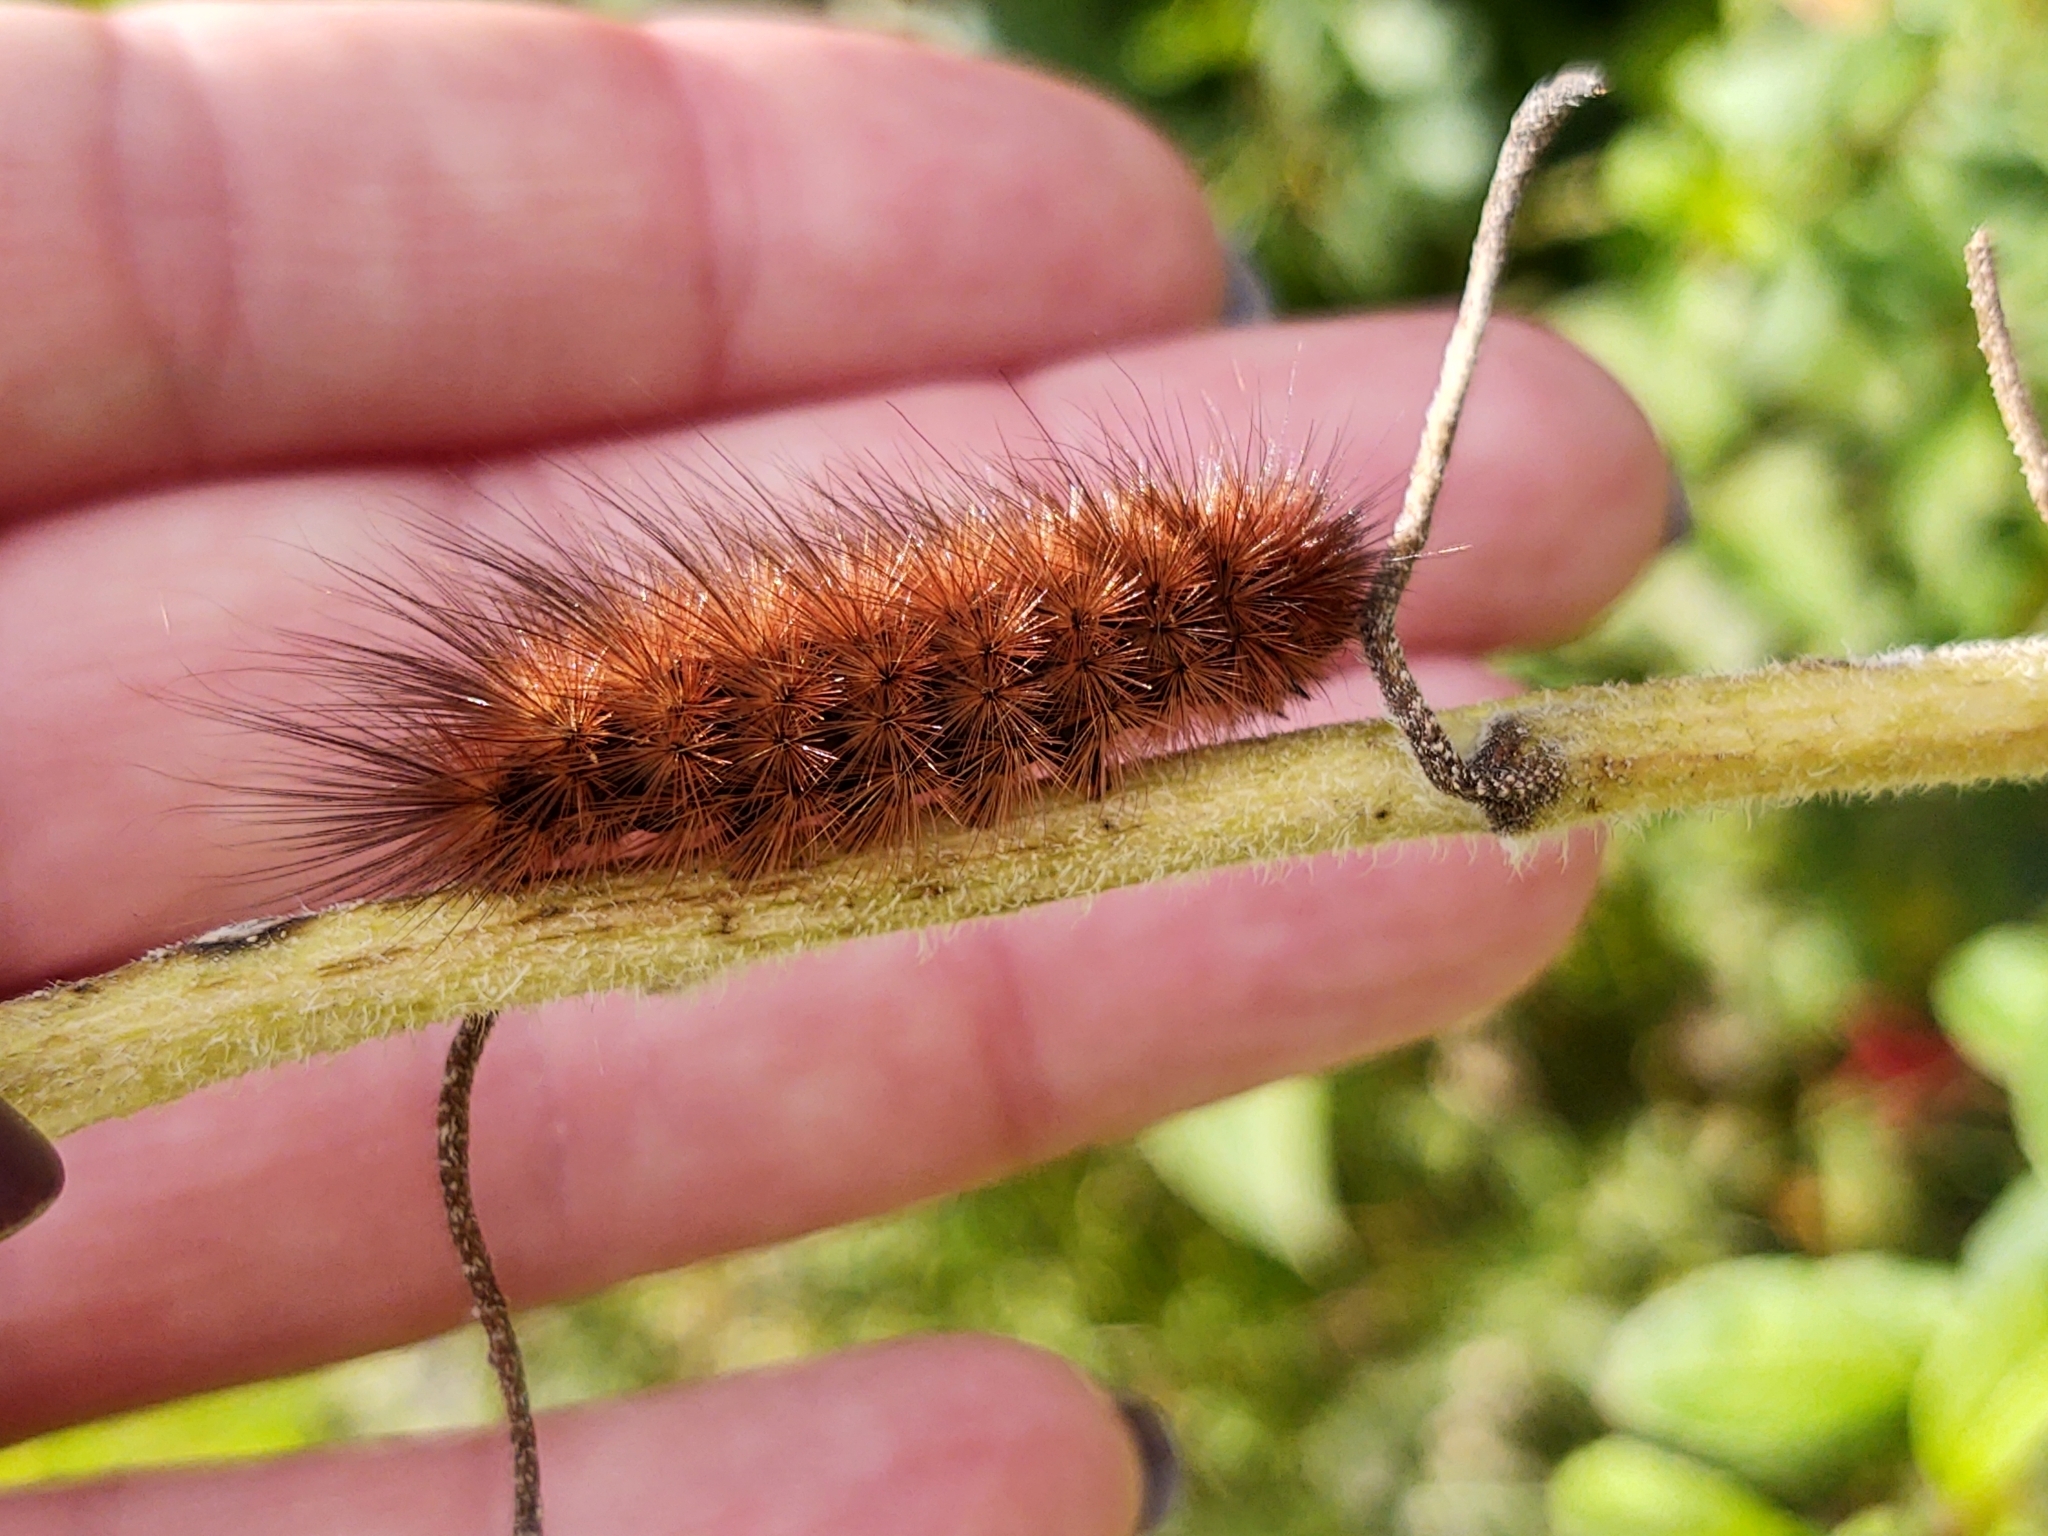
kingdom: Animalia
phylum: Arthropoda
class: Insecta
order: Lepidoptera
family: Erebidae
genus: Phragmatobia
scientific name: Phragmatobia fuliginosa
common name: Ruby tiger
